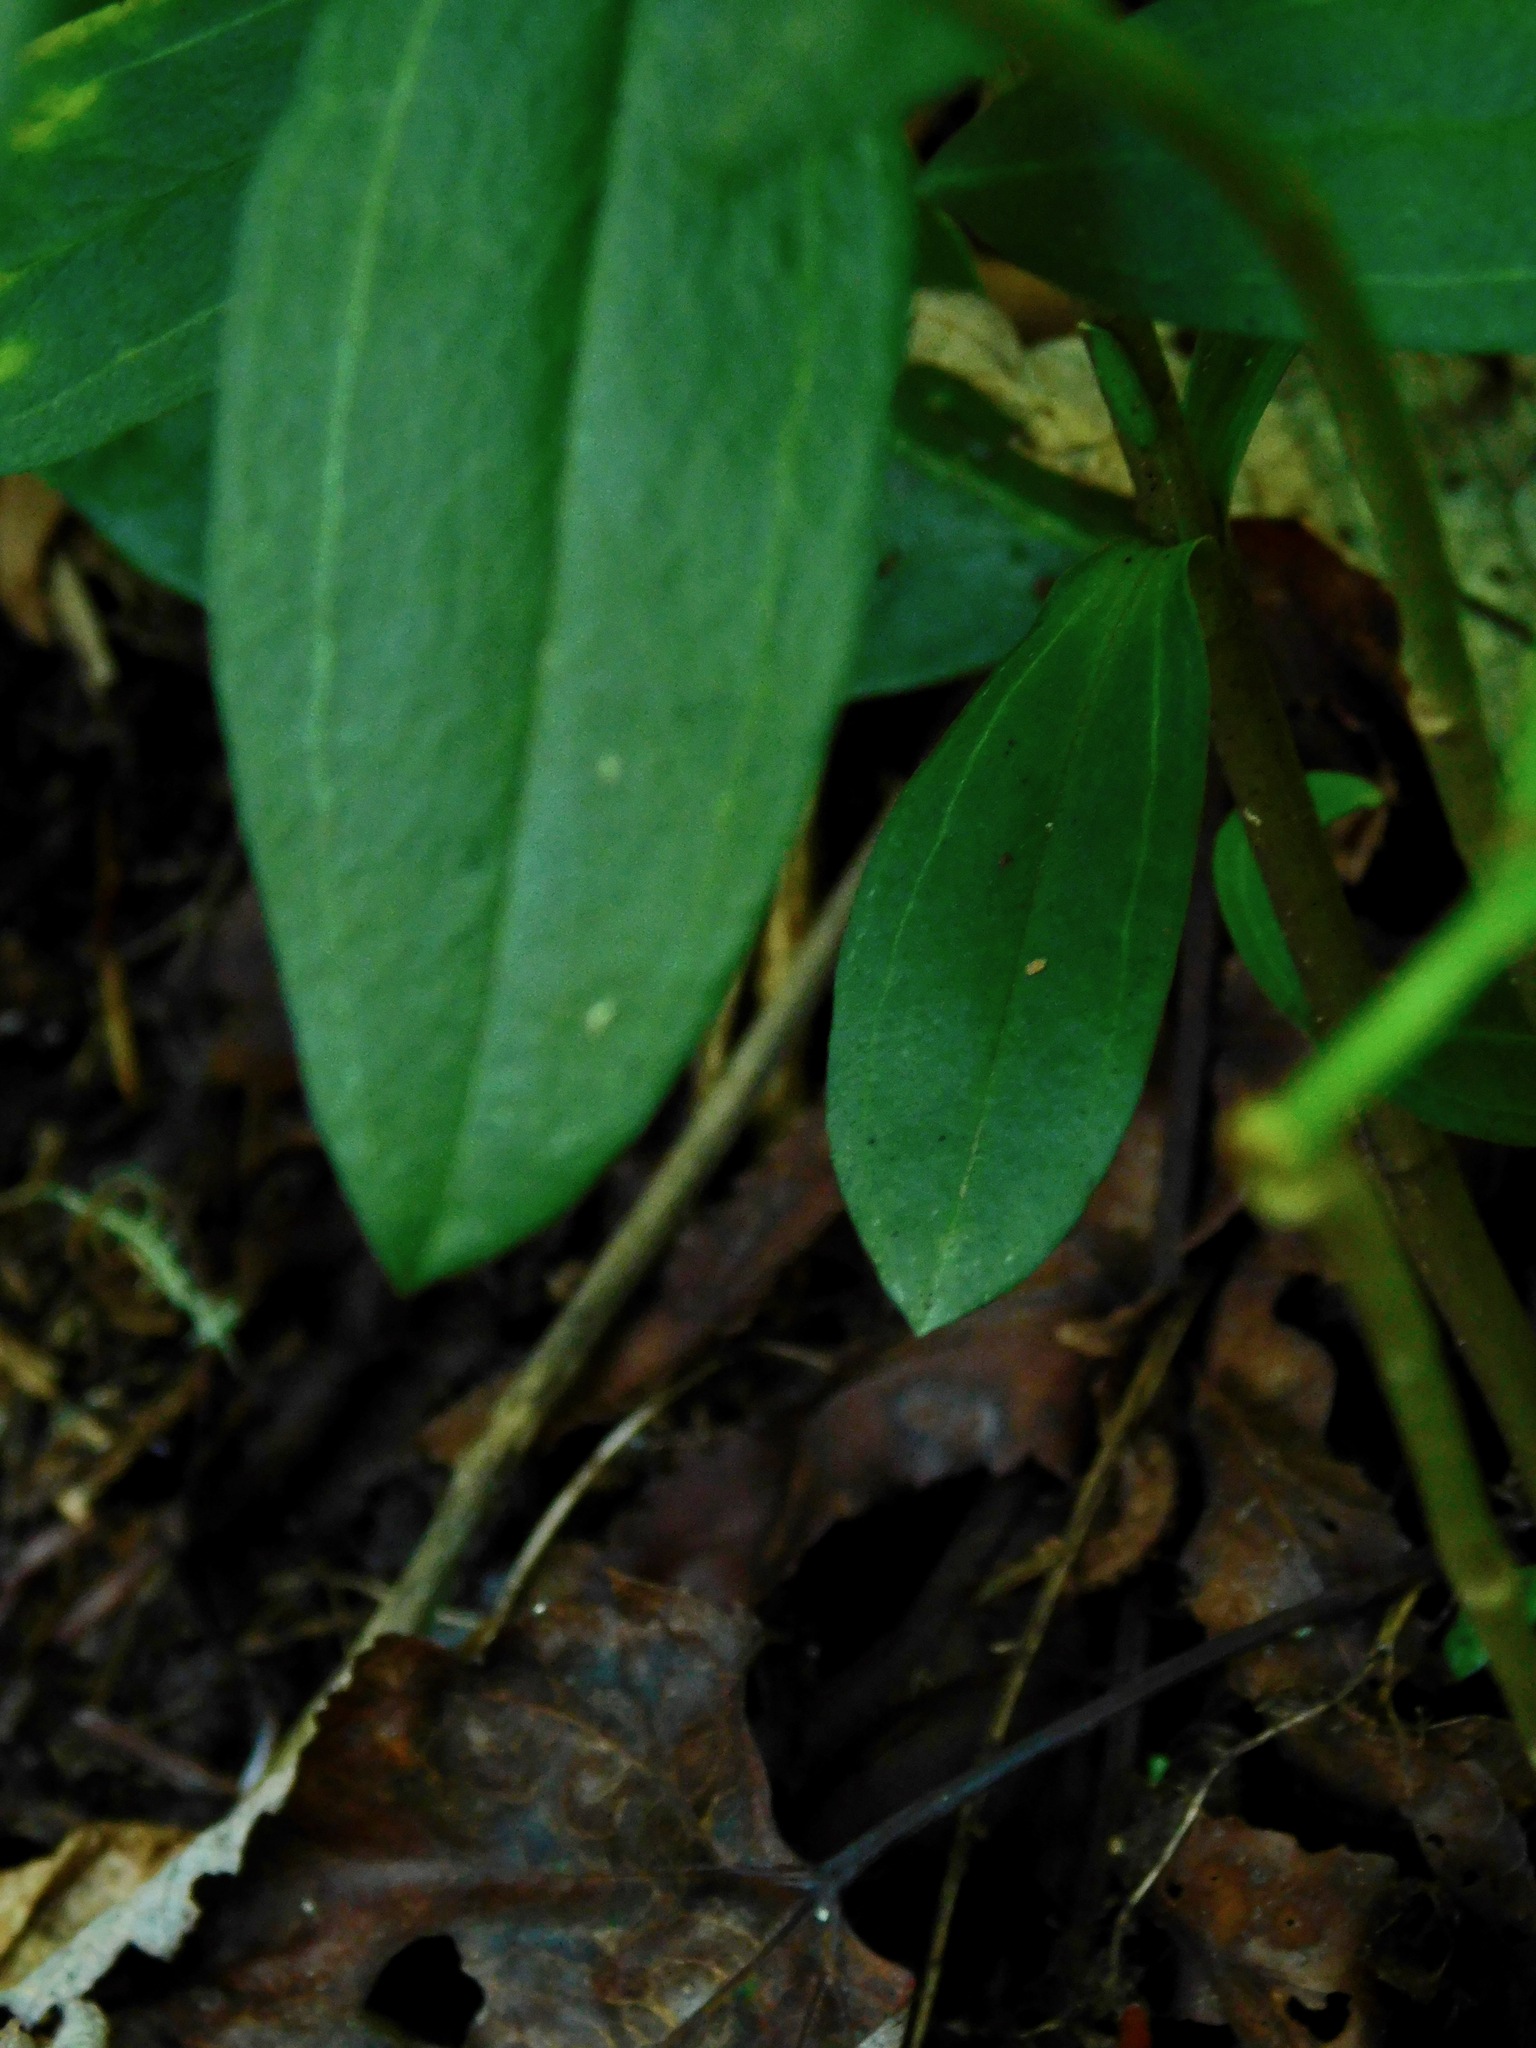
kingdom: Plantae
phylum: Tracheophyta
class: Magnoliopsida
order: Gentianales
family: Gentianaceae
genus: Gentiana
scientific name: Gentiana decora
